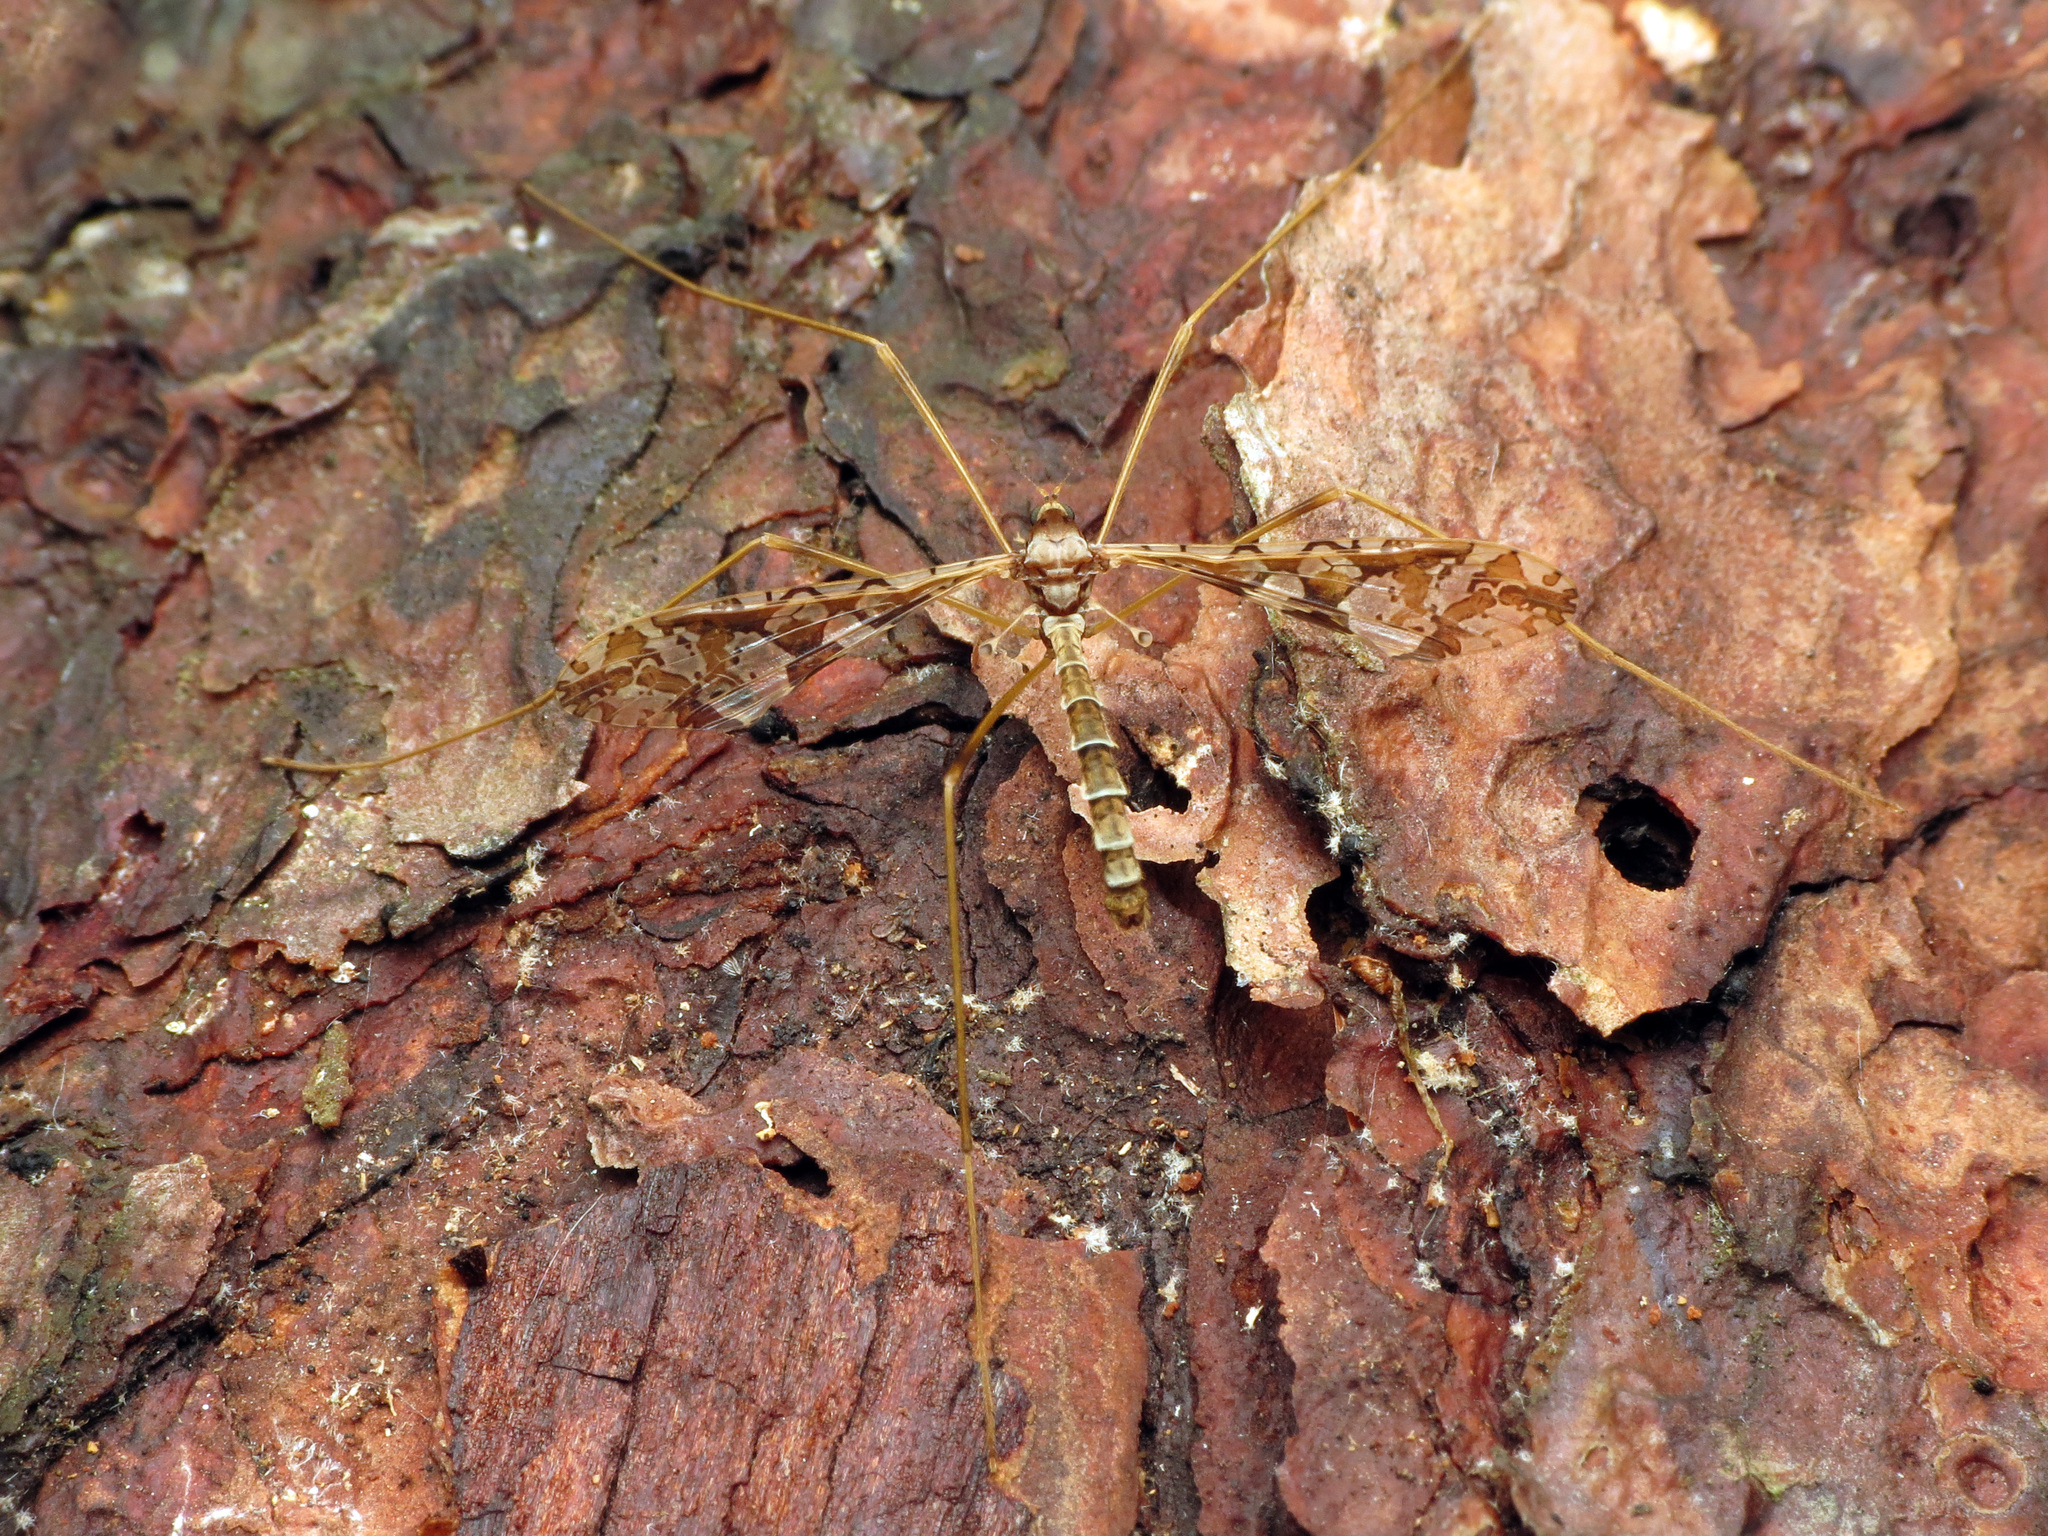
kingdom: Animalia
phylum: Arthropoda
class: Insecta
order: Diptera
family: Limoniidae
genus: Epiphragma
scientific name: Epiphragma solatrix
